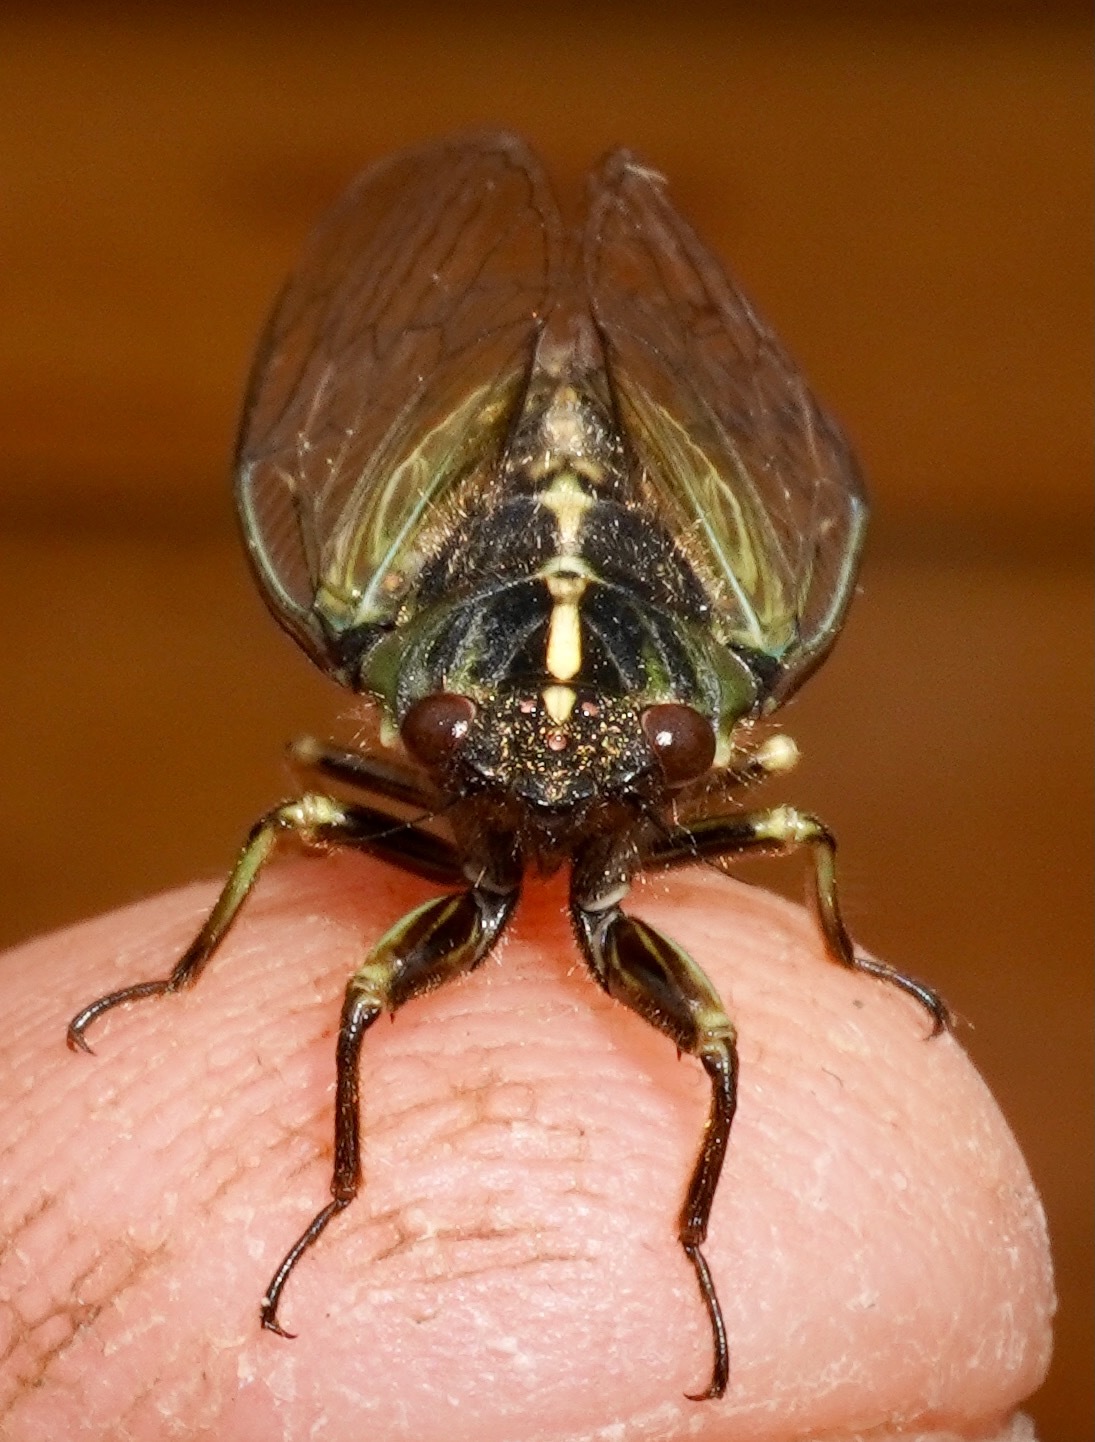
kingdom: Animalia
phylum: Arthropoda
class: Insecta
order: Hemiptera
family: Cicadidae
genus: Kikihia
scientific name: Kikihia muta
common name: Variable cicada
